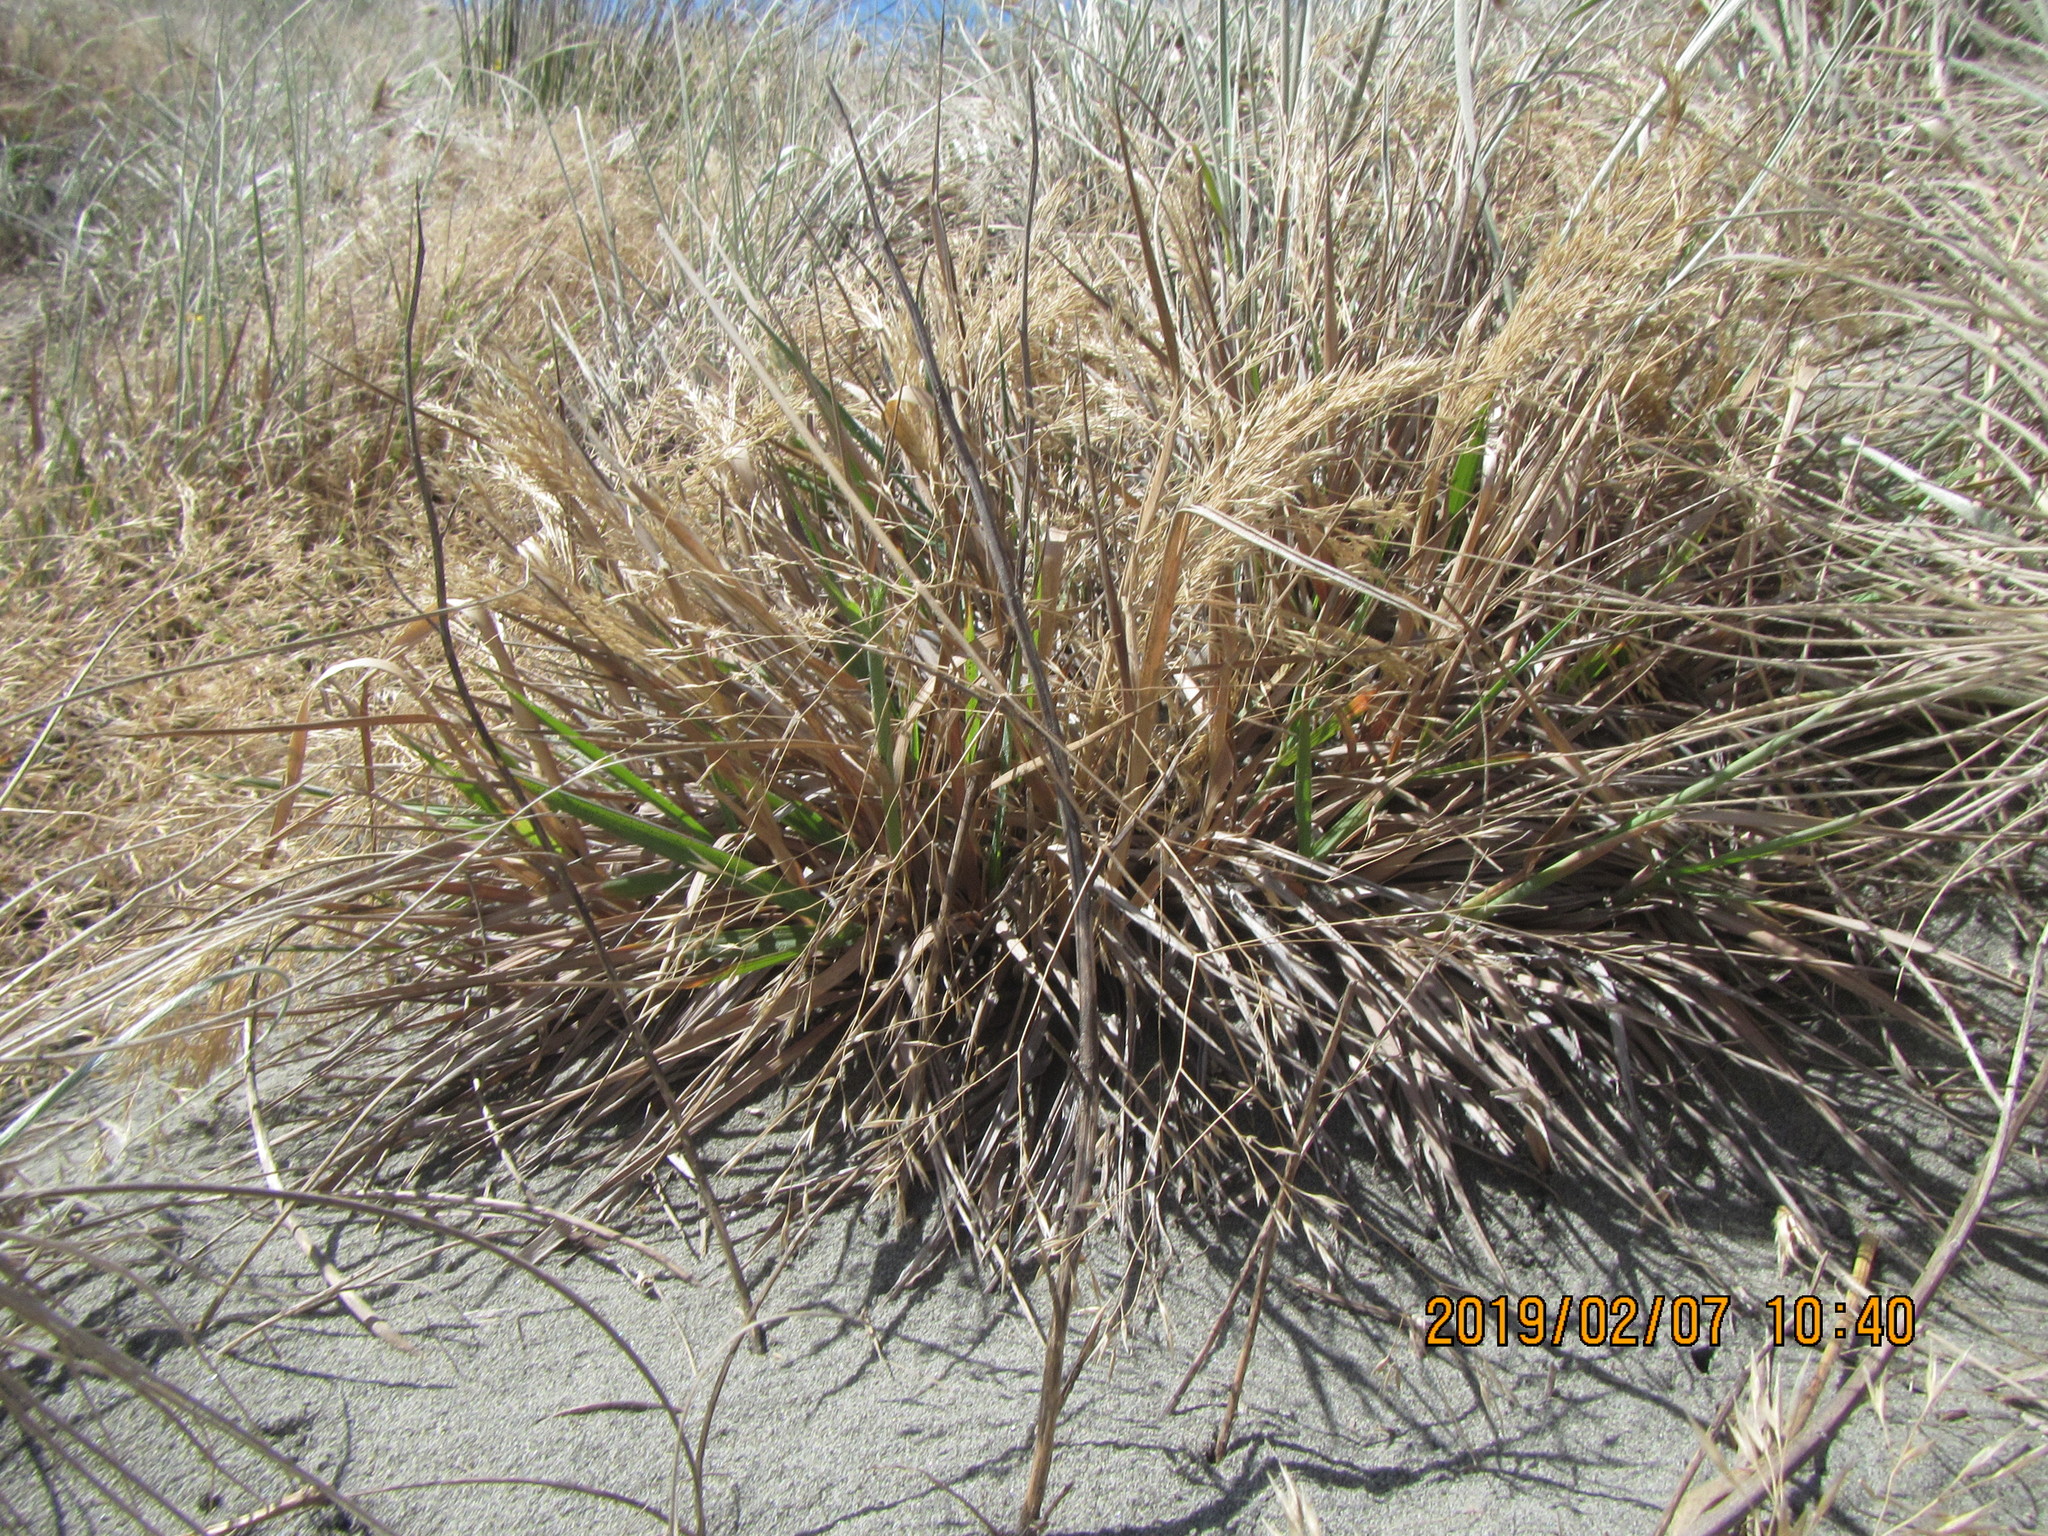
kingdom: Plantae
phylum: Tracheophyta
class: Liliopsida
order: Poales
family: Poaceae
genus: Lachnagrostis
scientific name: Lachnagrostis billardierei
